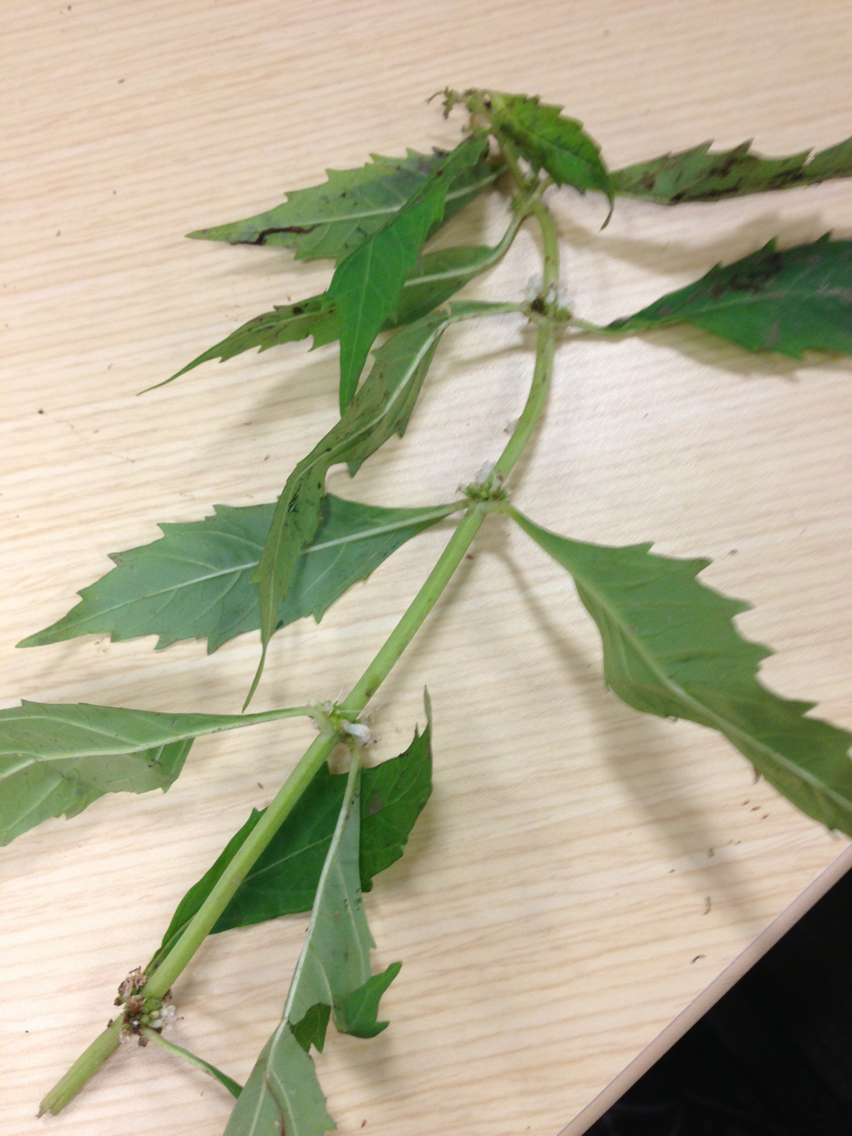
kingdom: Plantae
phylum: Tracheophyta
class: Magnoliopsida
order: Lamiales
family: Lamiaceae
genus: Lycopus
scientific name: Lycopus uniflorus
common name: Northern bugleweed
